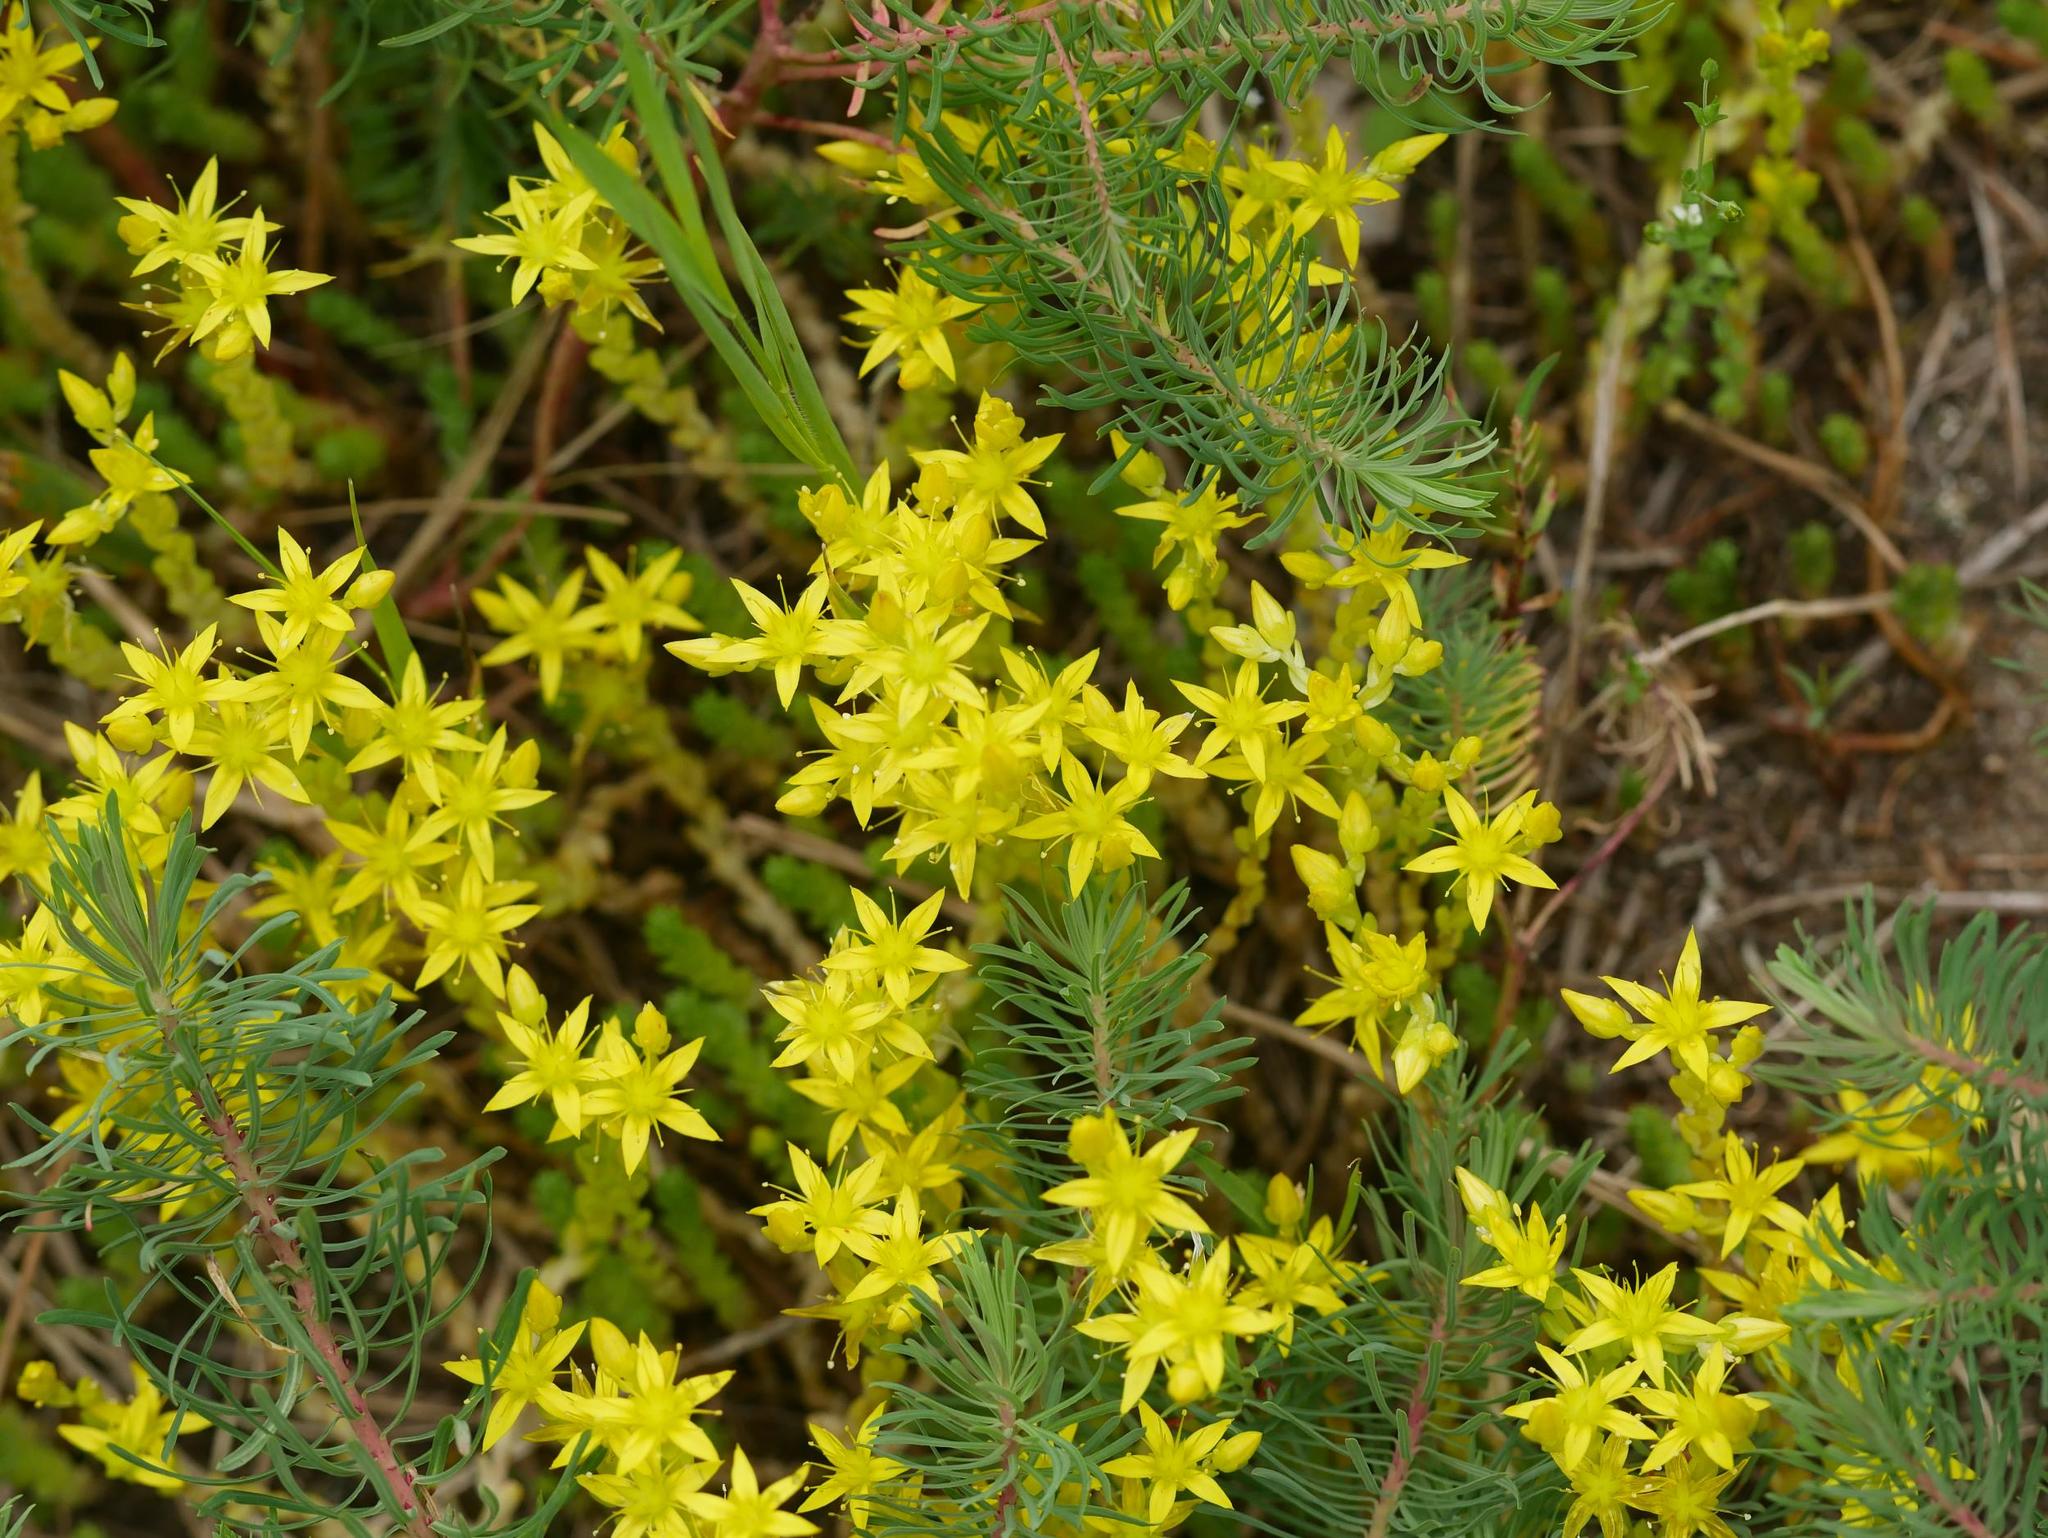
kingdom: Plantae
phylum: Tracheophyta
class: Magnoliopsida
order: Saxifragales
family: Crassulaceae
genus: Sedum
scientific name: Sedum acre
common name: Biting stonecrop
